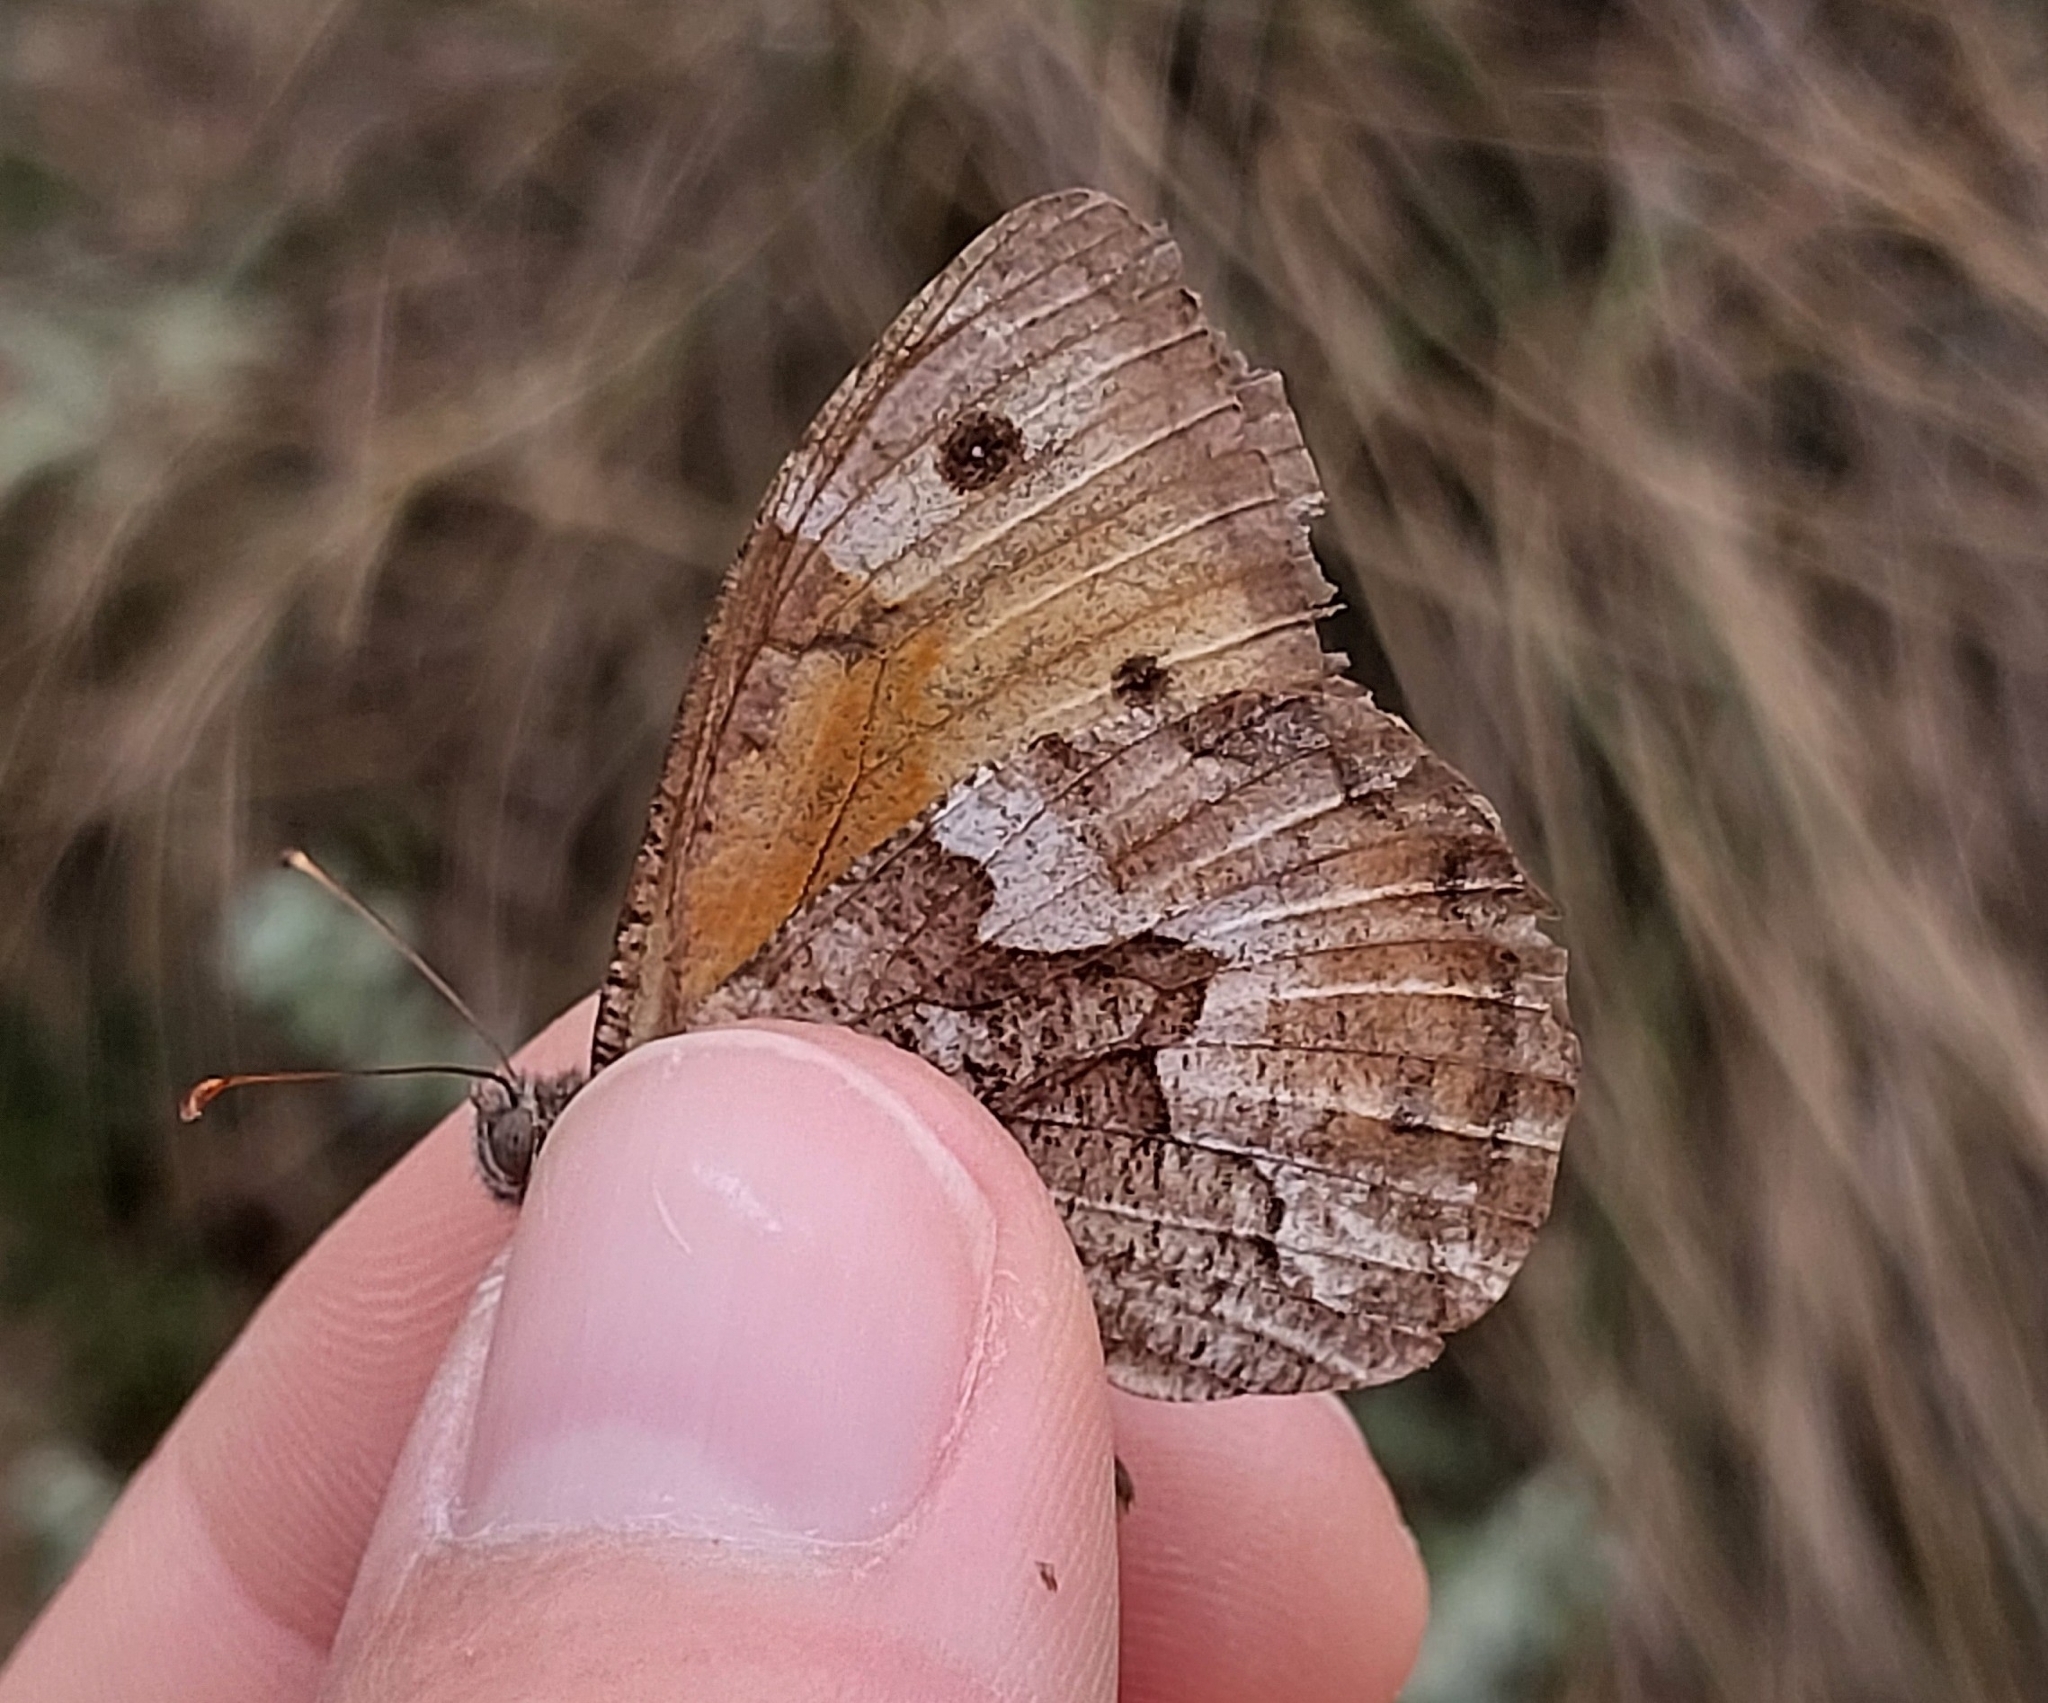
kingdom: Animalia
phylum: Arthropoda
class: Insecta
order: Lepidoptera
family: Nymphalidae
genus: Hipparchia
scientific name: Hipparchia cretica
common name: Cretan grayling
